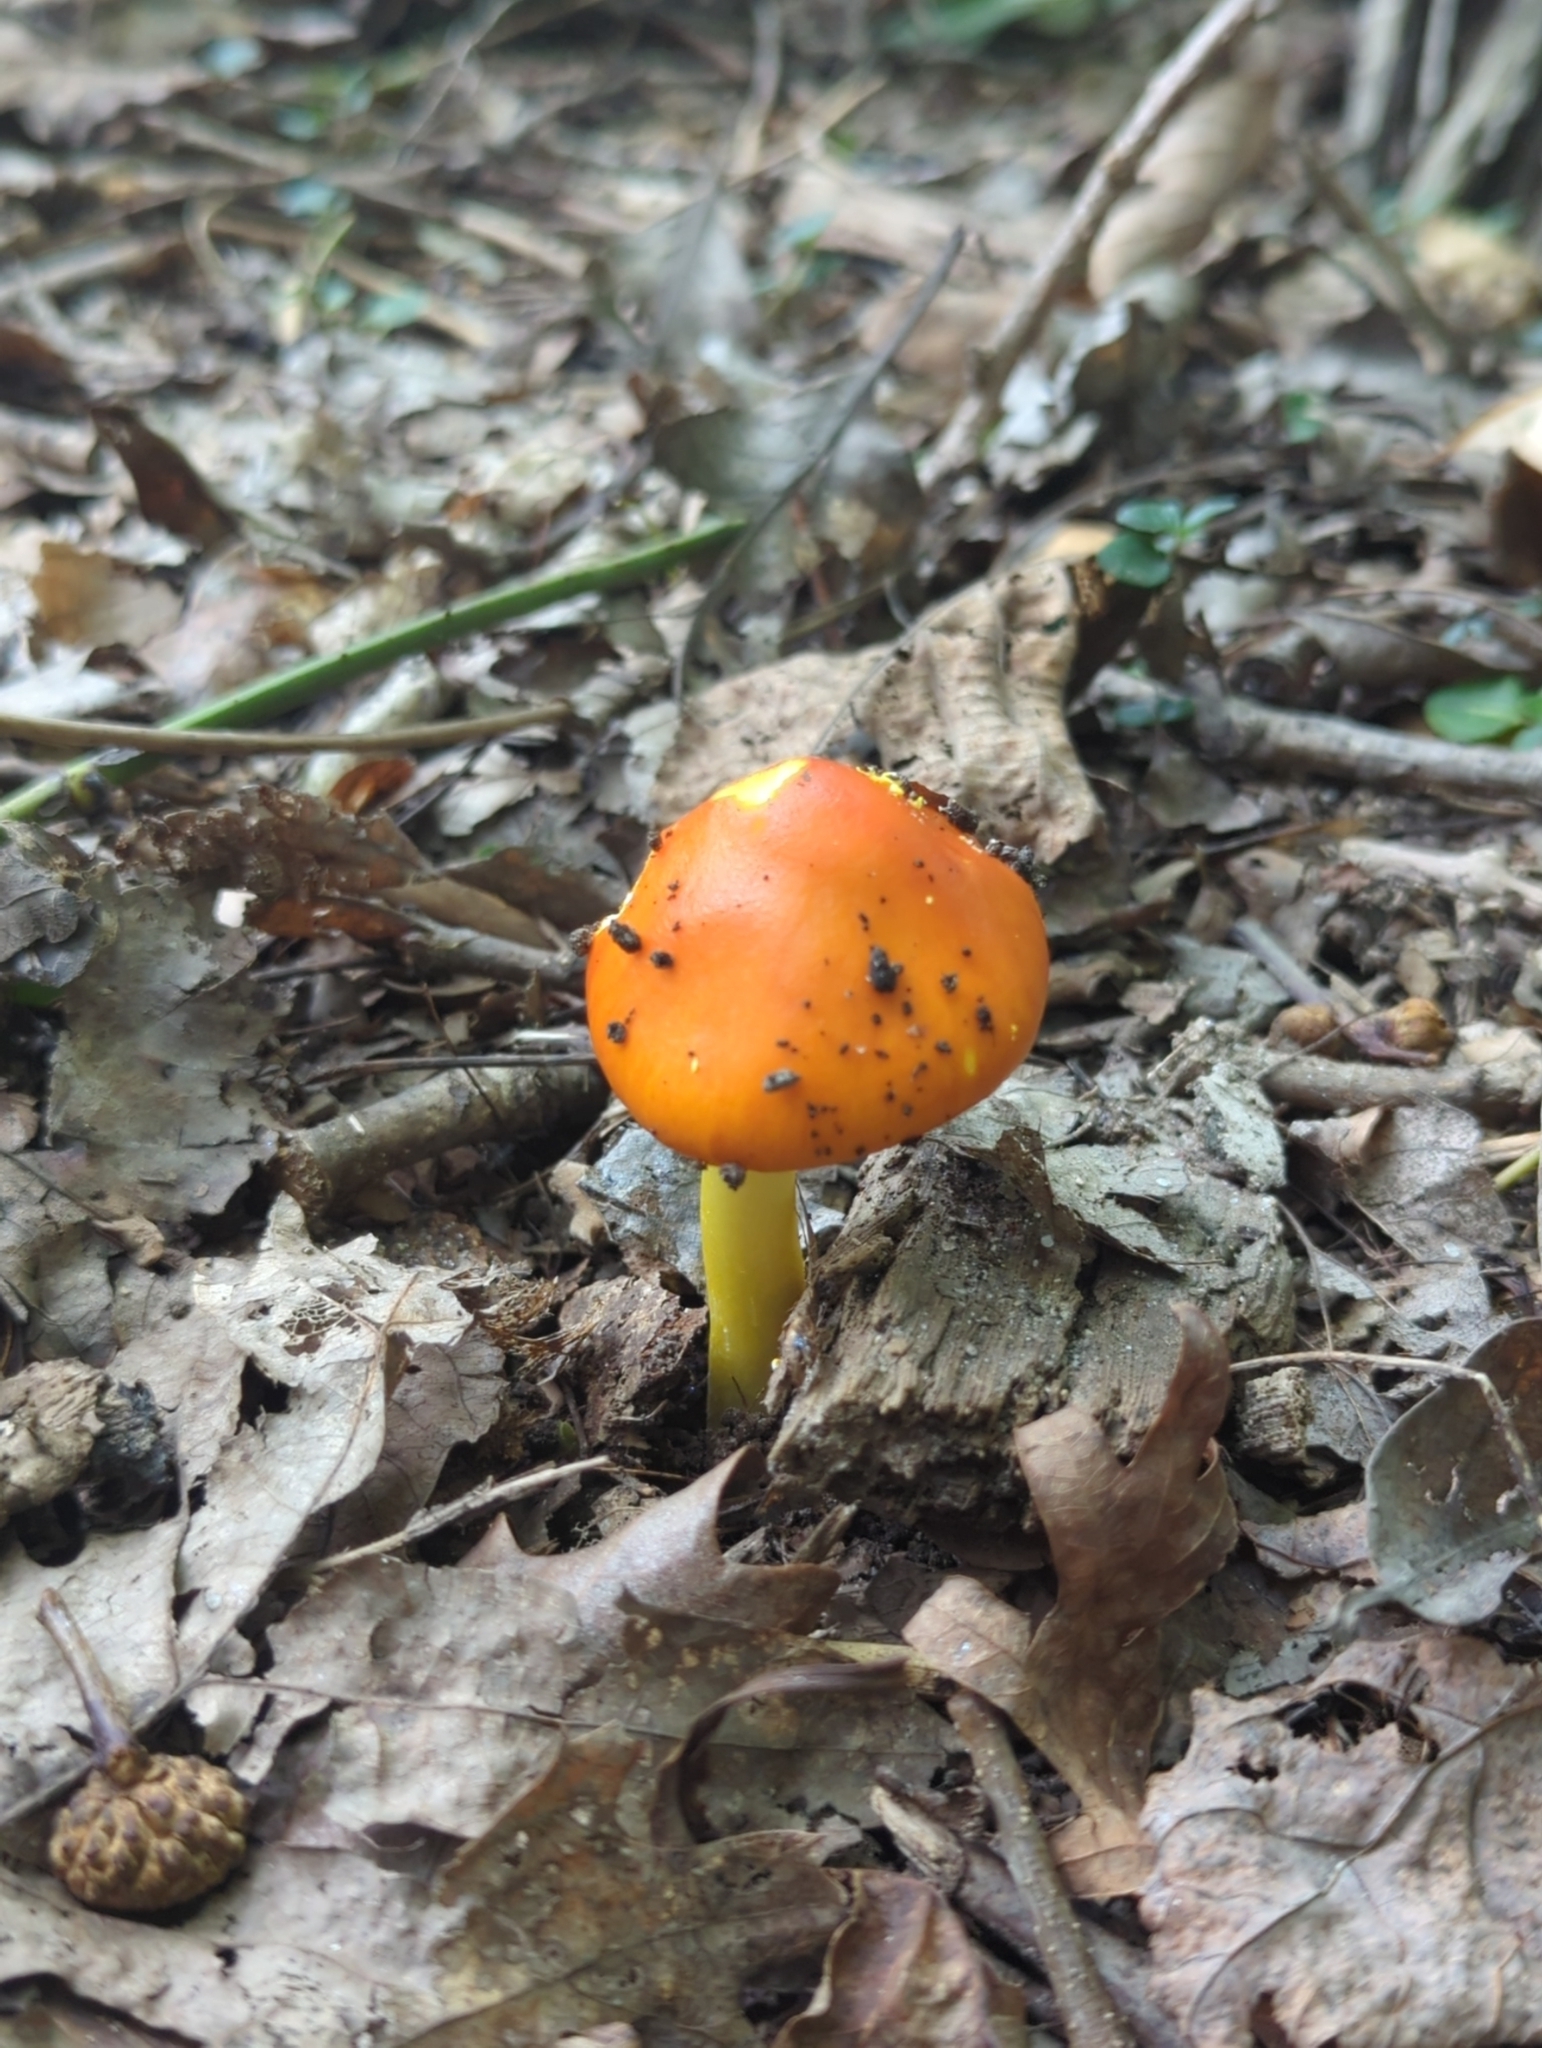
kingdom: Fungi
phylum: Basidiomycota
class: Agaricomycetes
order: Agaricales
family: Amanitaceae
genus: Amanita
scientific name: Amanita flavoconia
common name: Yellow patches
